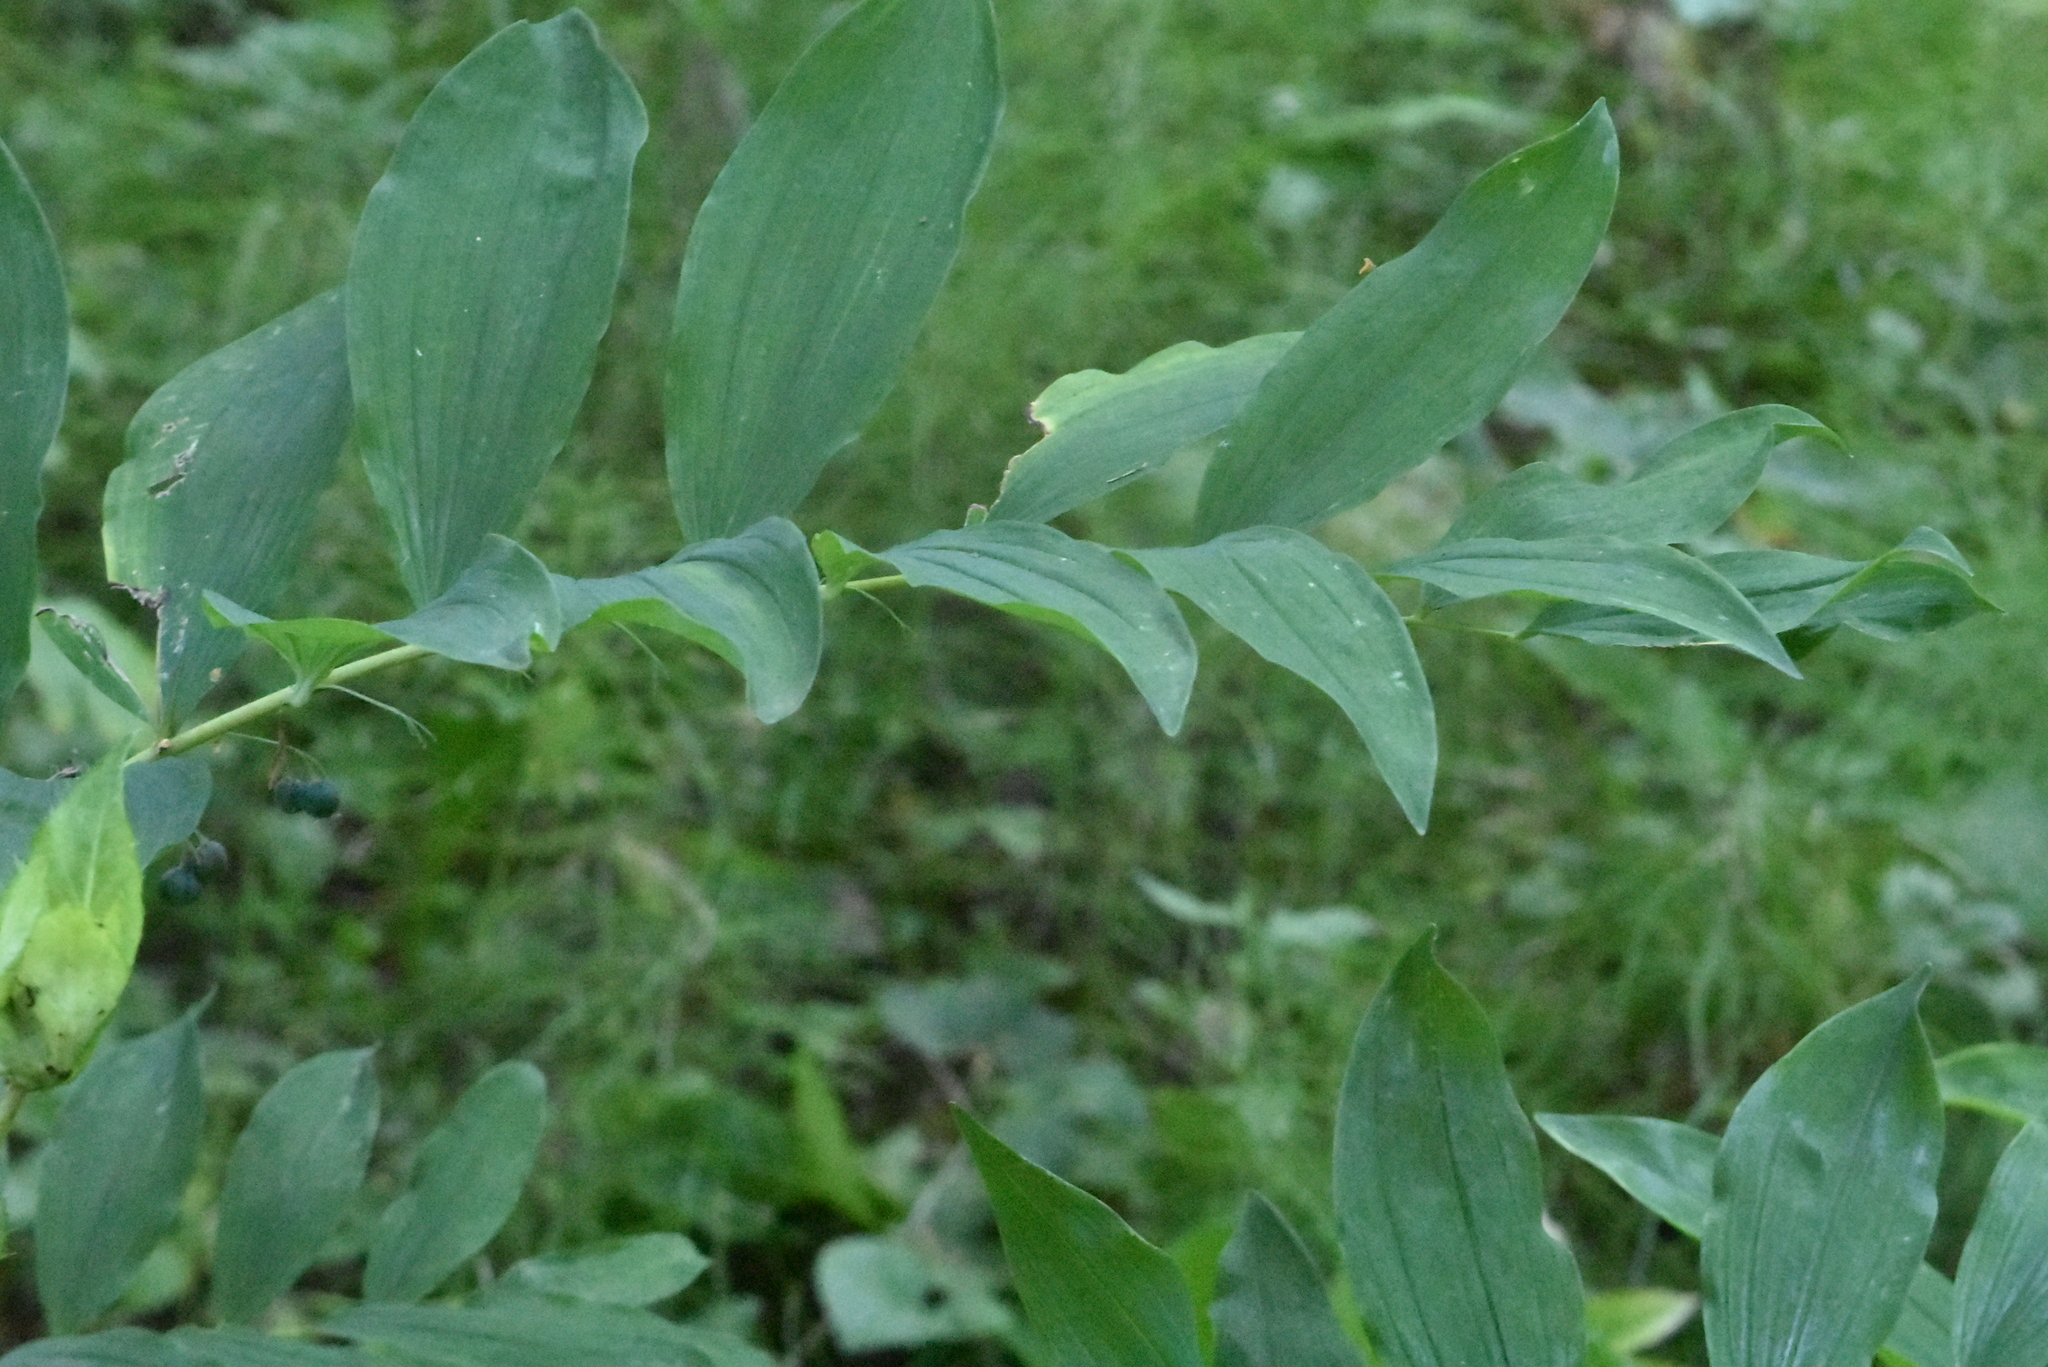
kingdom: Plantae
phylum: Tracheophyta
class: Liliopsida
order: Asparagales
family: Asparagaceae
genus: Polygonatum
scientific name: Polygonatum multiflorum
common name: Solomon's-seal
